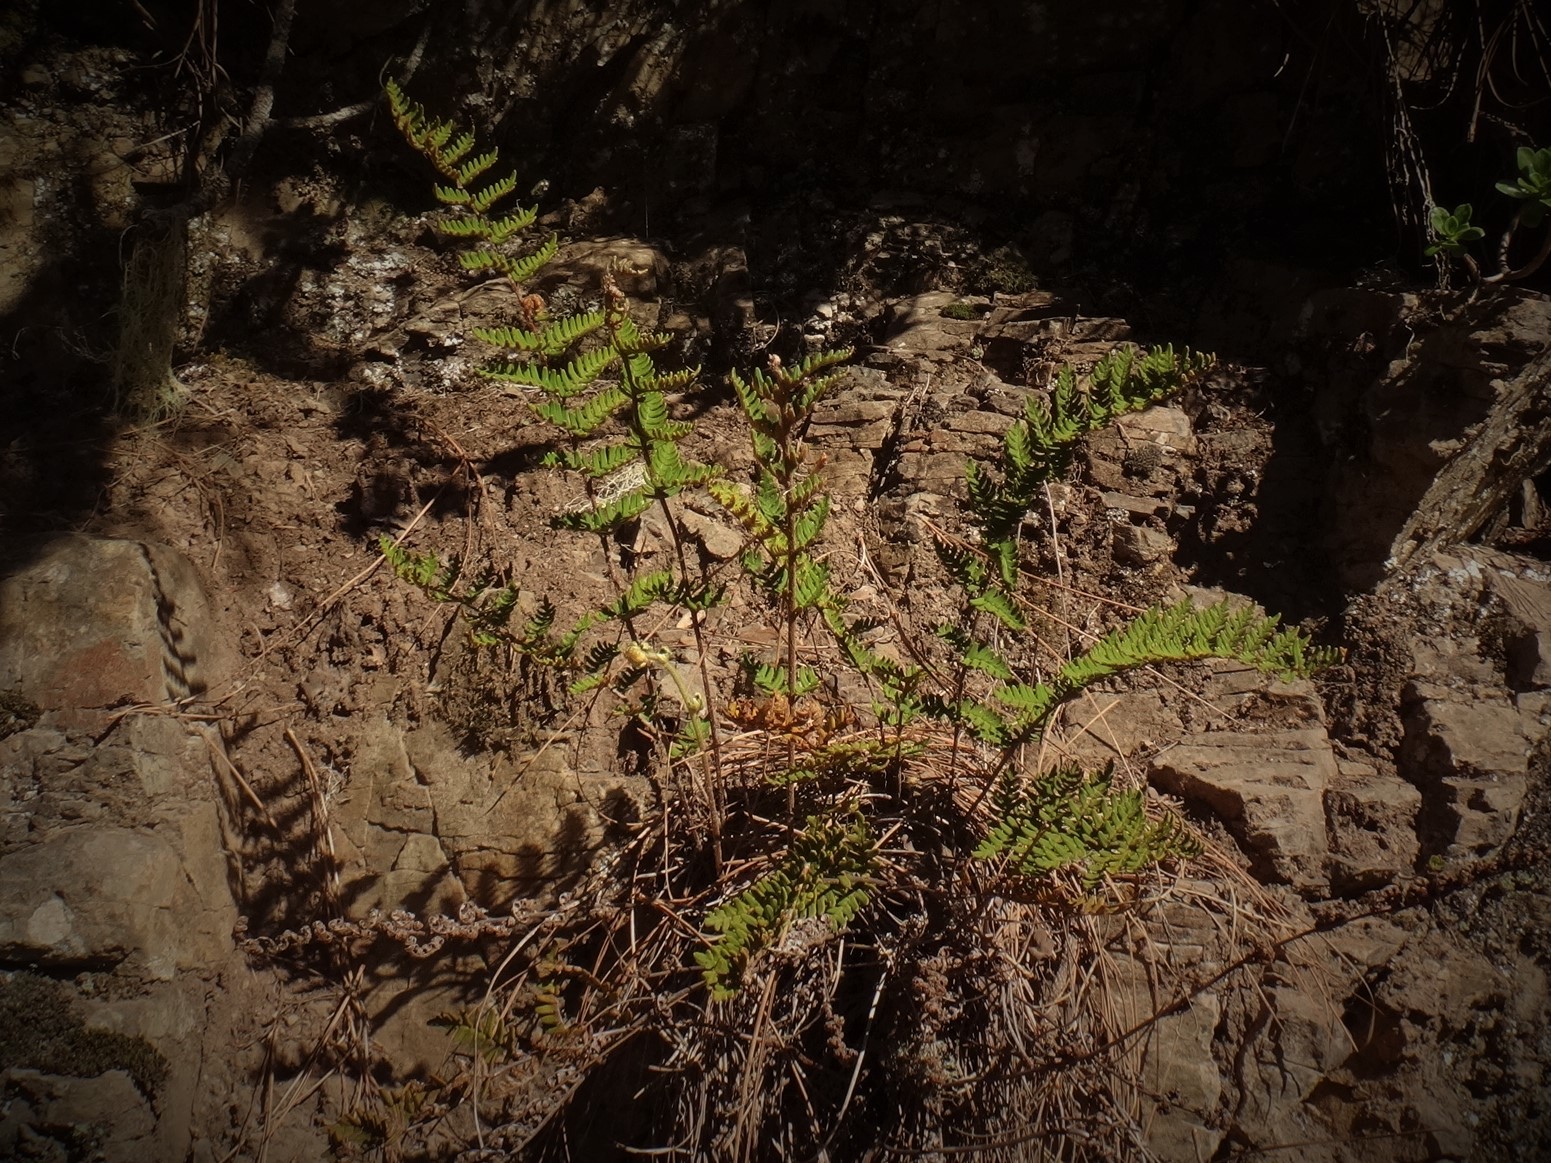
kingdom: Plantae
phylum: Tracheophyta
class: Polypodiopsida
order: Polypodiales
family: Pteridaceae
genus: Paragymnopteris
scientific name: Paragymnopteris marantae
